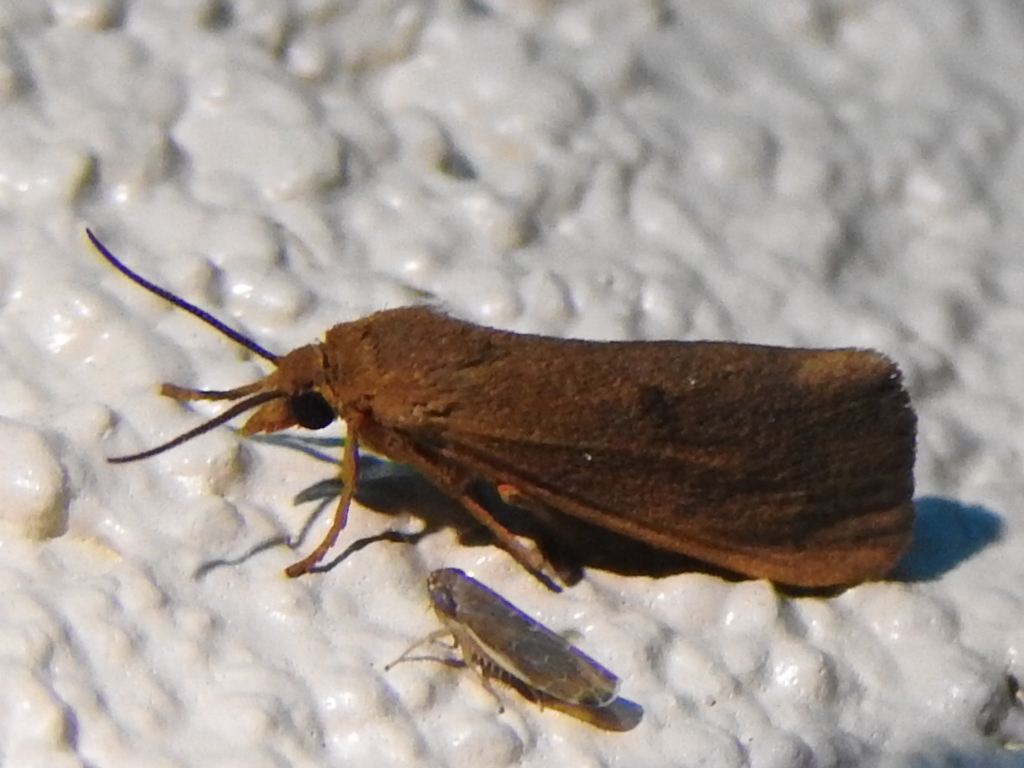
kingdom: Animalia
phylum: Arthropoda
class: Insecta
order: Lepidoptera
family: Erebidae
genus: Virbia
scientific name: Virbia aurantiaca
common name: Orange virbia moth
